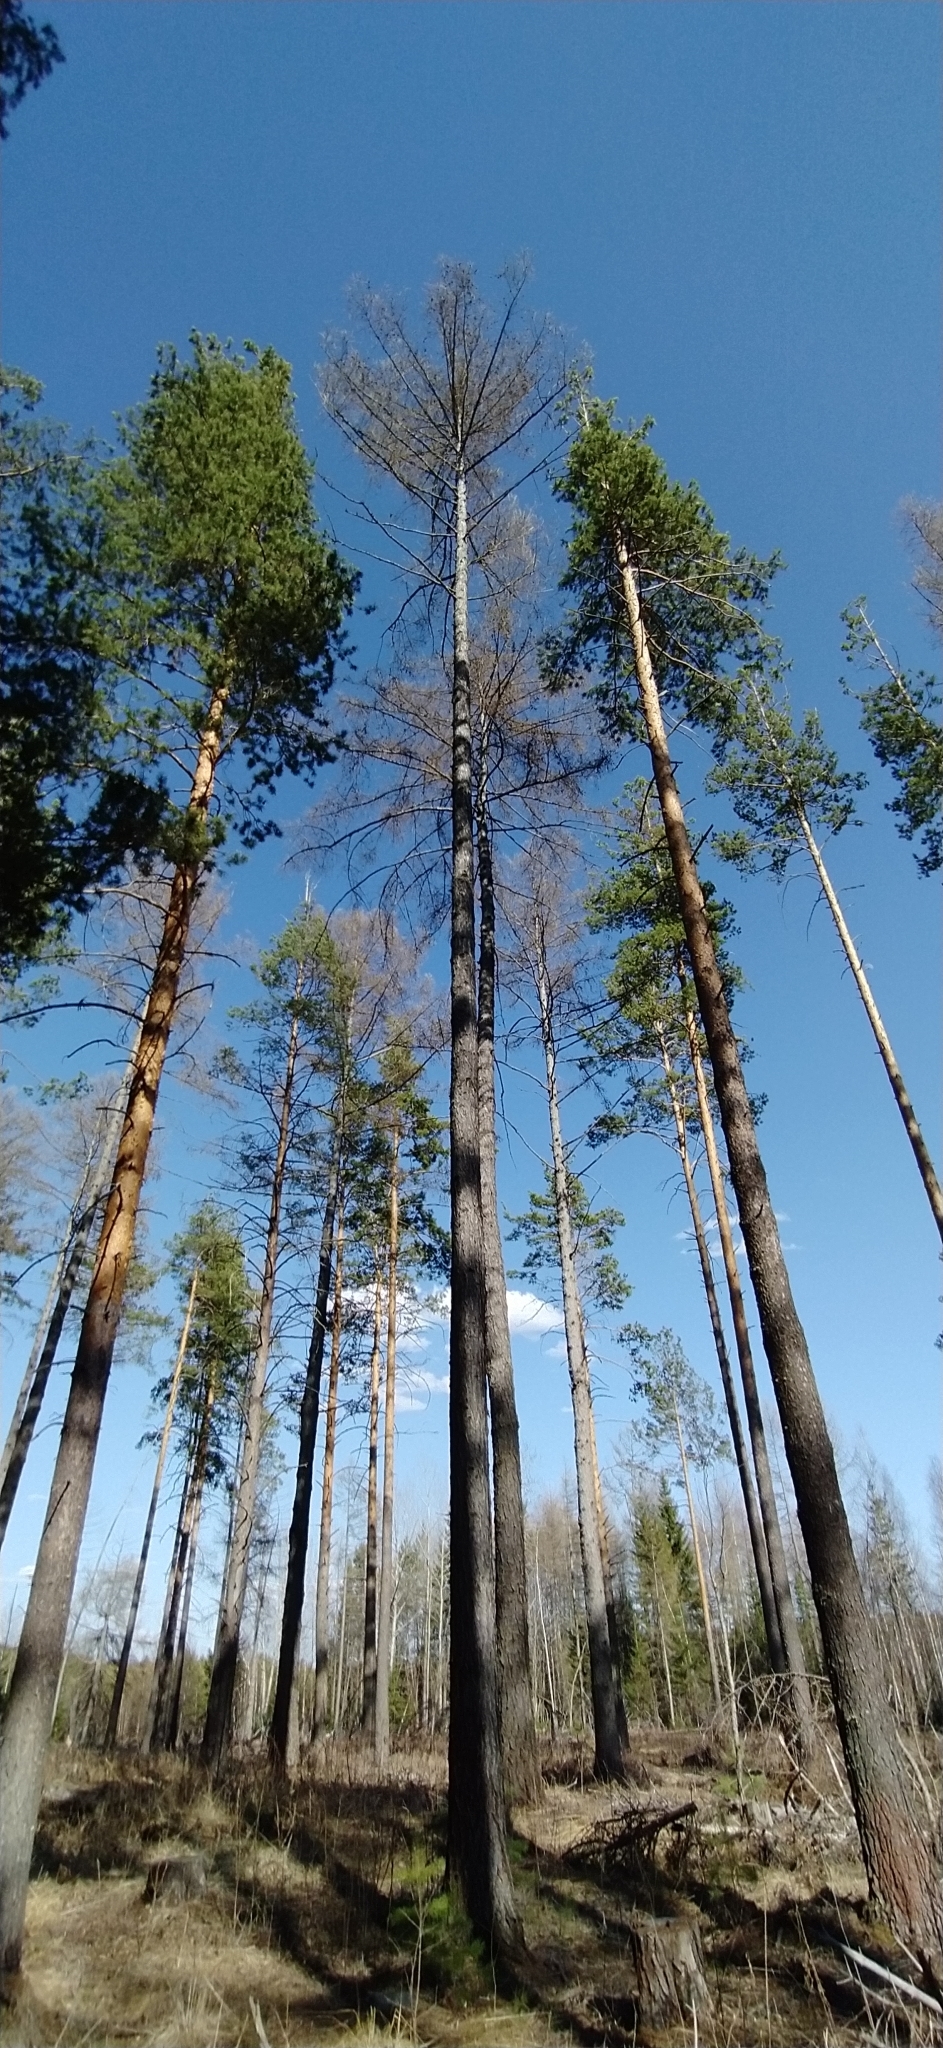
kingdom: Plantae
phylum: Tracheophyta
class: Pinopsida
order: Pinales
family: Pinaceae
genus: Larix
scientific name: Larix sibirica
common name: Siberian larch
